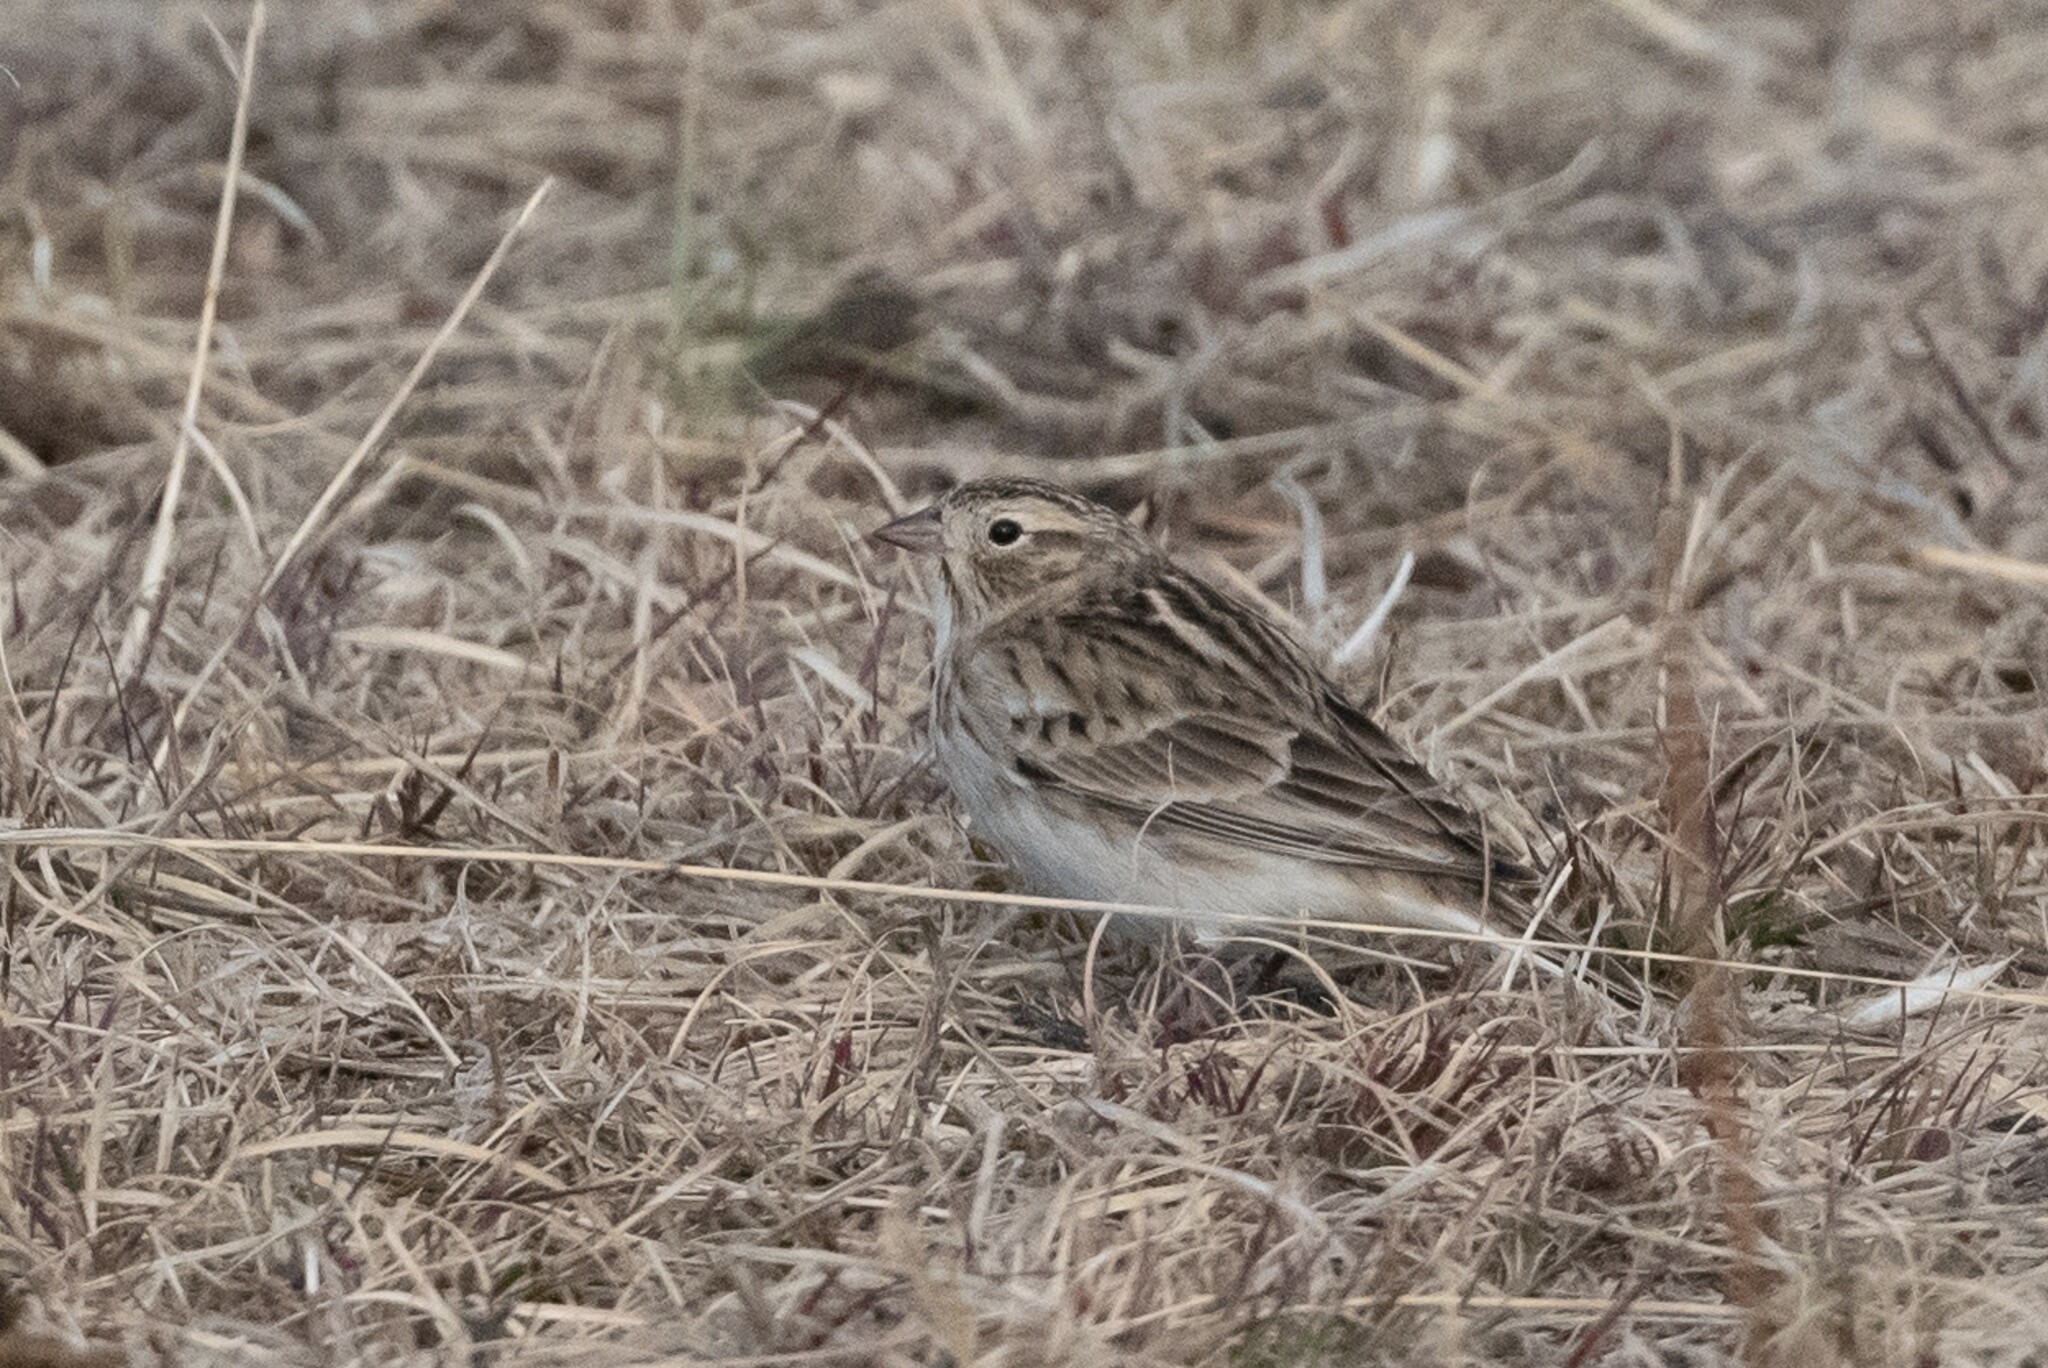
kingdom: Animalia
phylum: Chordata
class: Aves
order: Passeriformes
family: Calcariidae
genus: Calcarius
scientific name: Calcarius ornatus
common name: Chestnut-collared longspur
